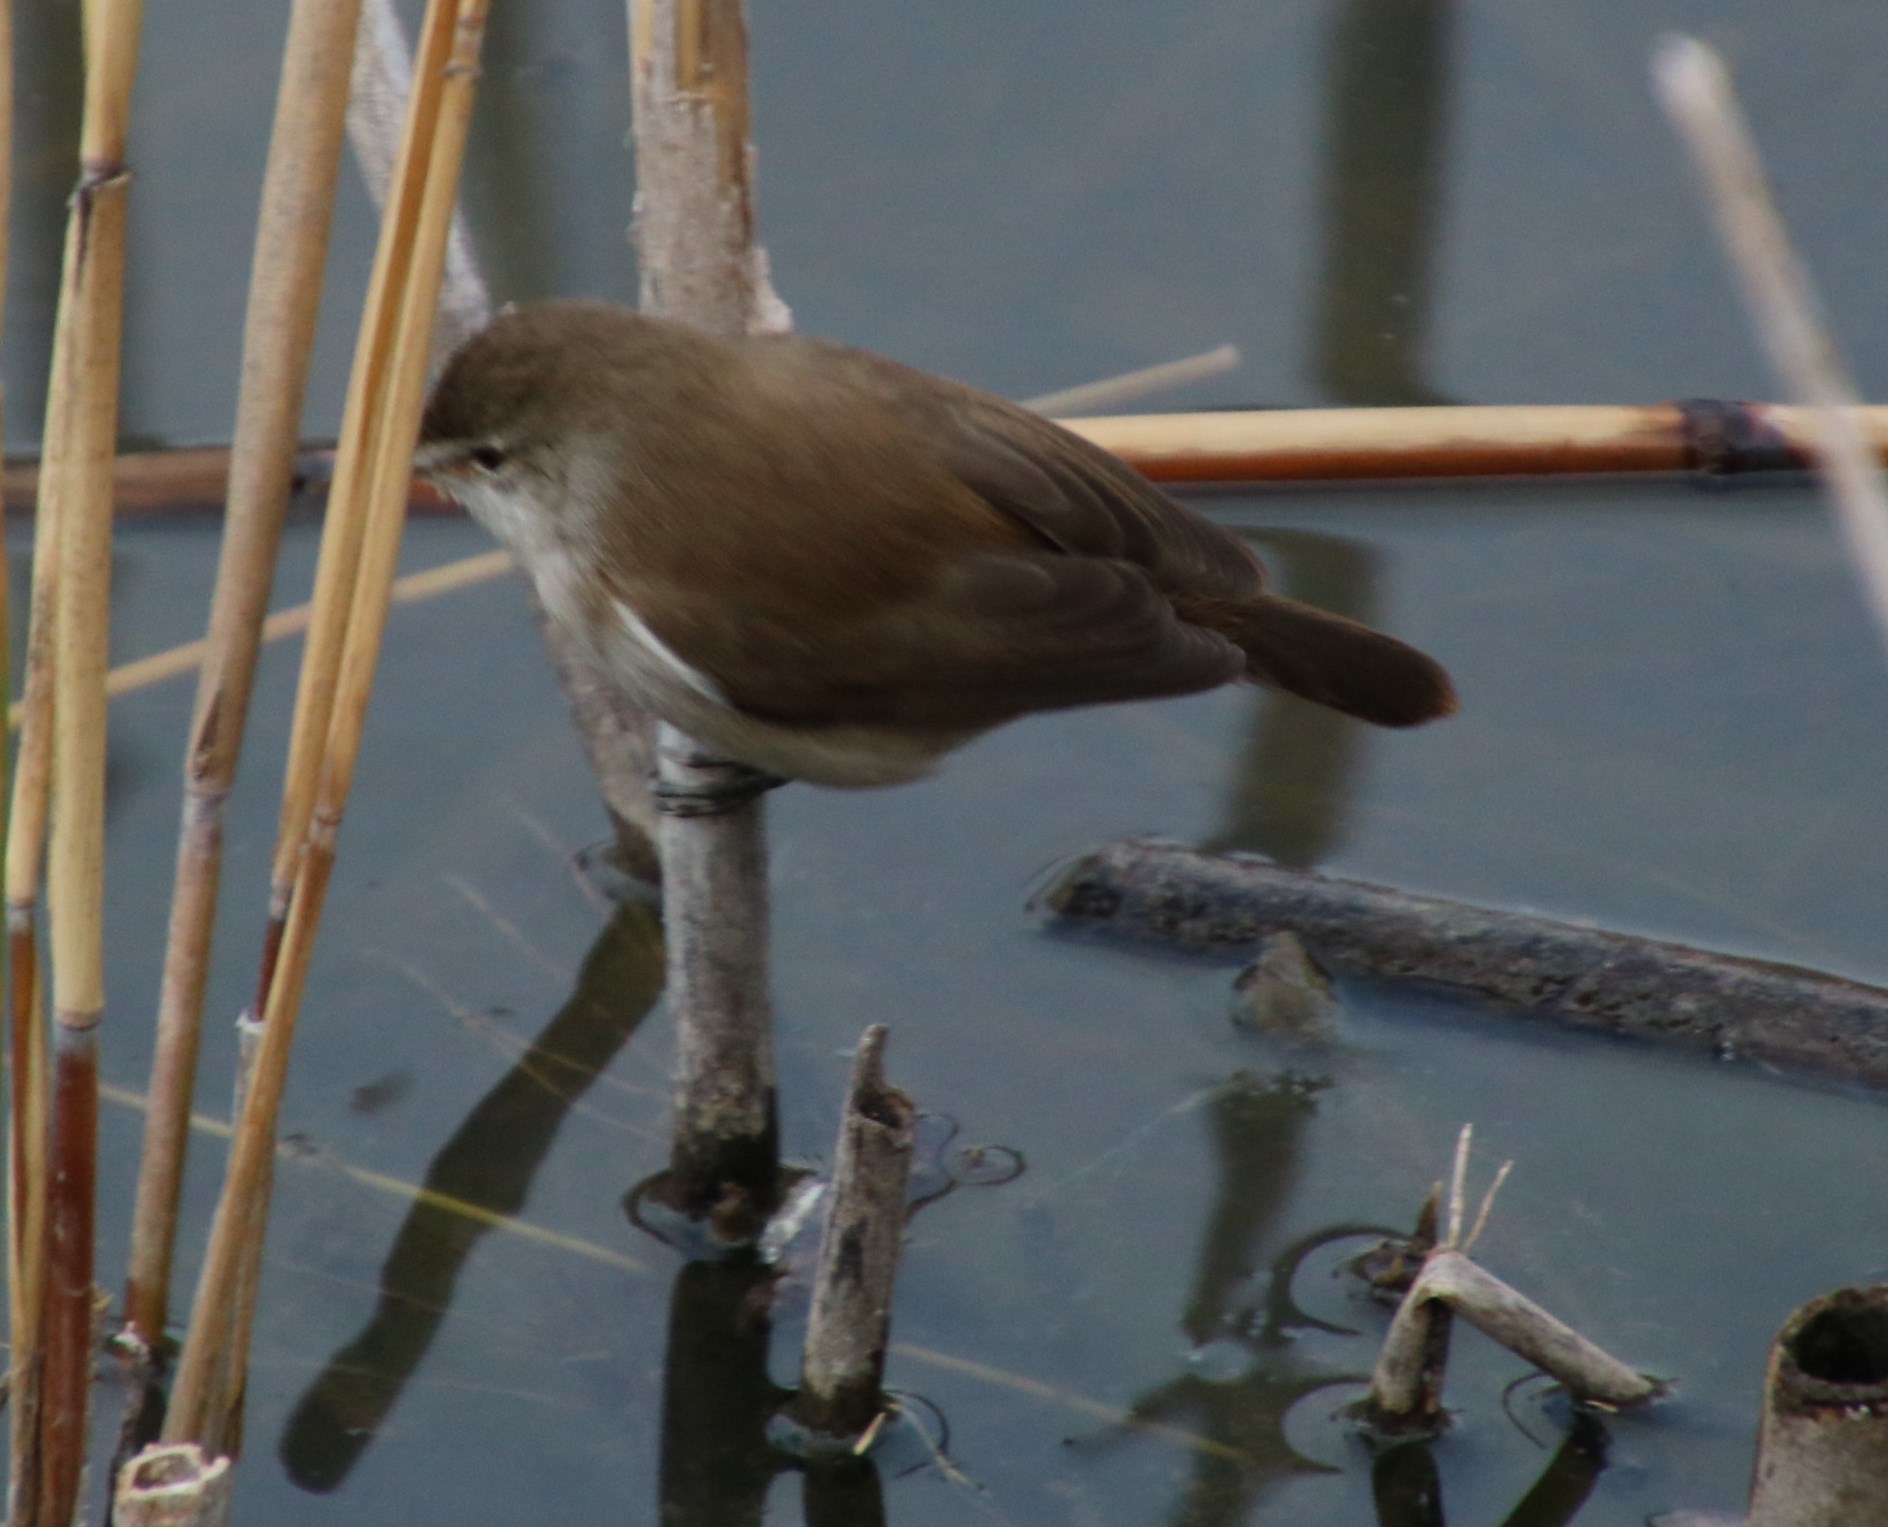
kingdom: Animalia
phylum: Chordata
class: Aves
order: Passeriformes
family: Acrocephalidae
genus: Acrocephalus
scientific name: Acrocephalus gracilirostris
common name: Lesser swamp warbler
